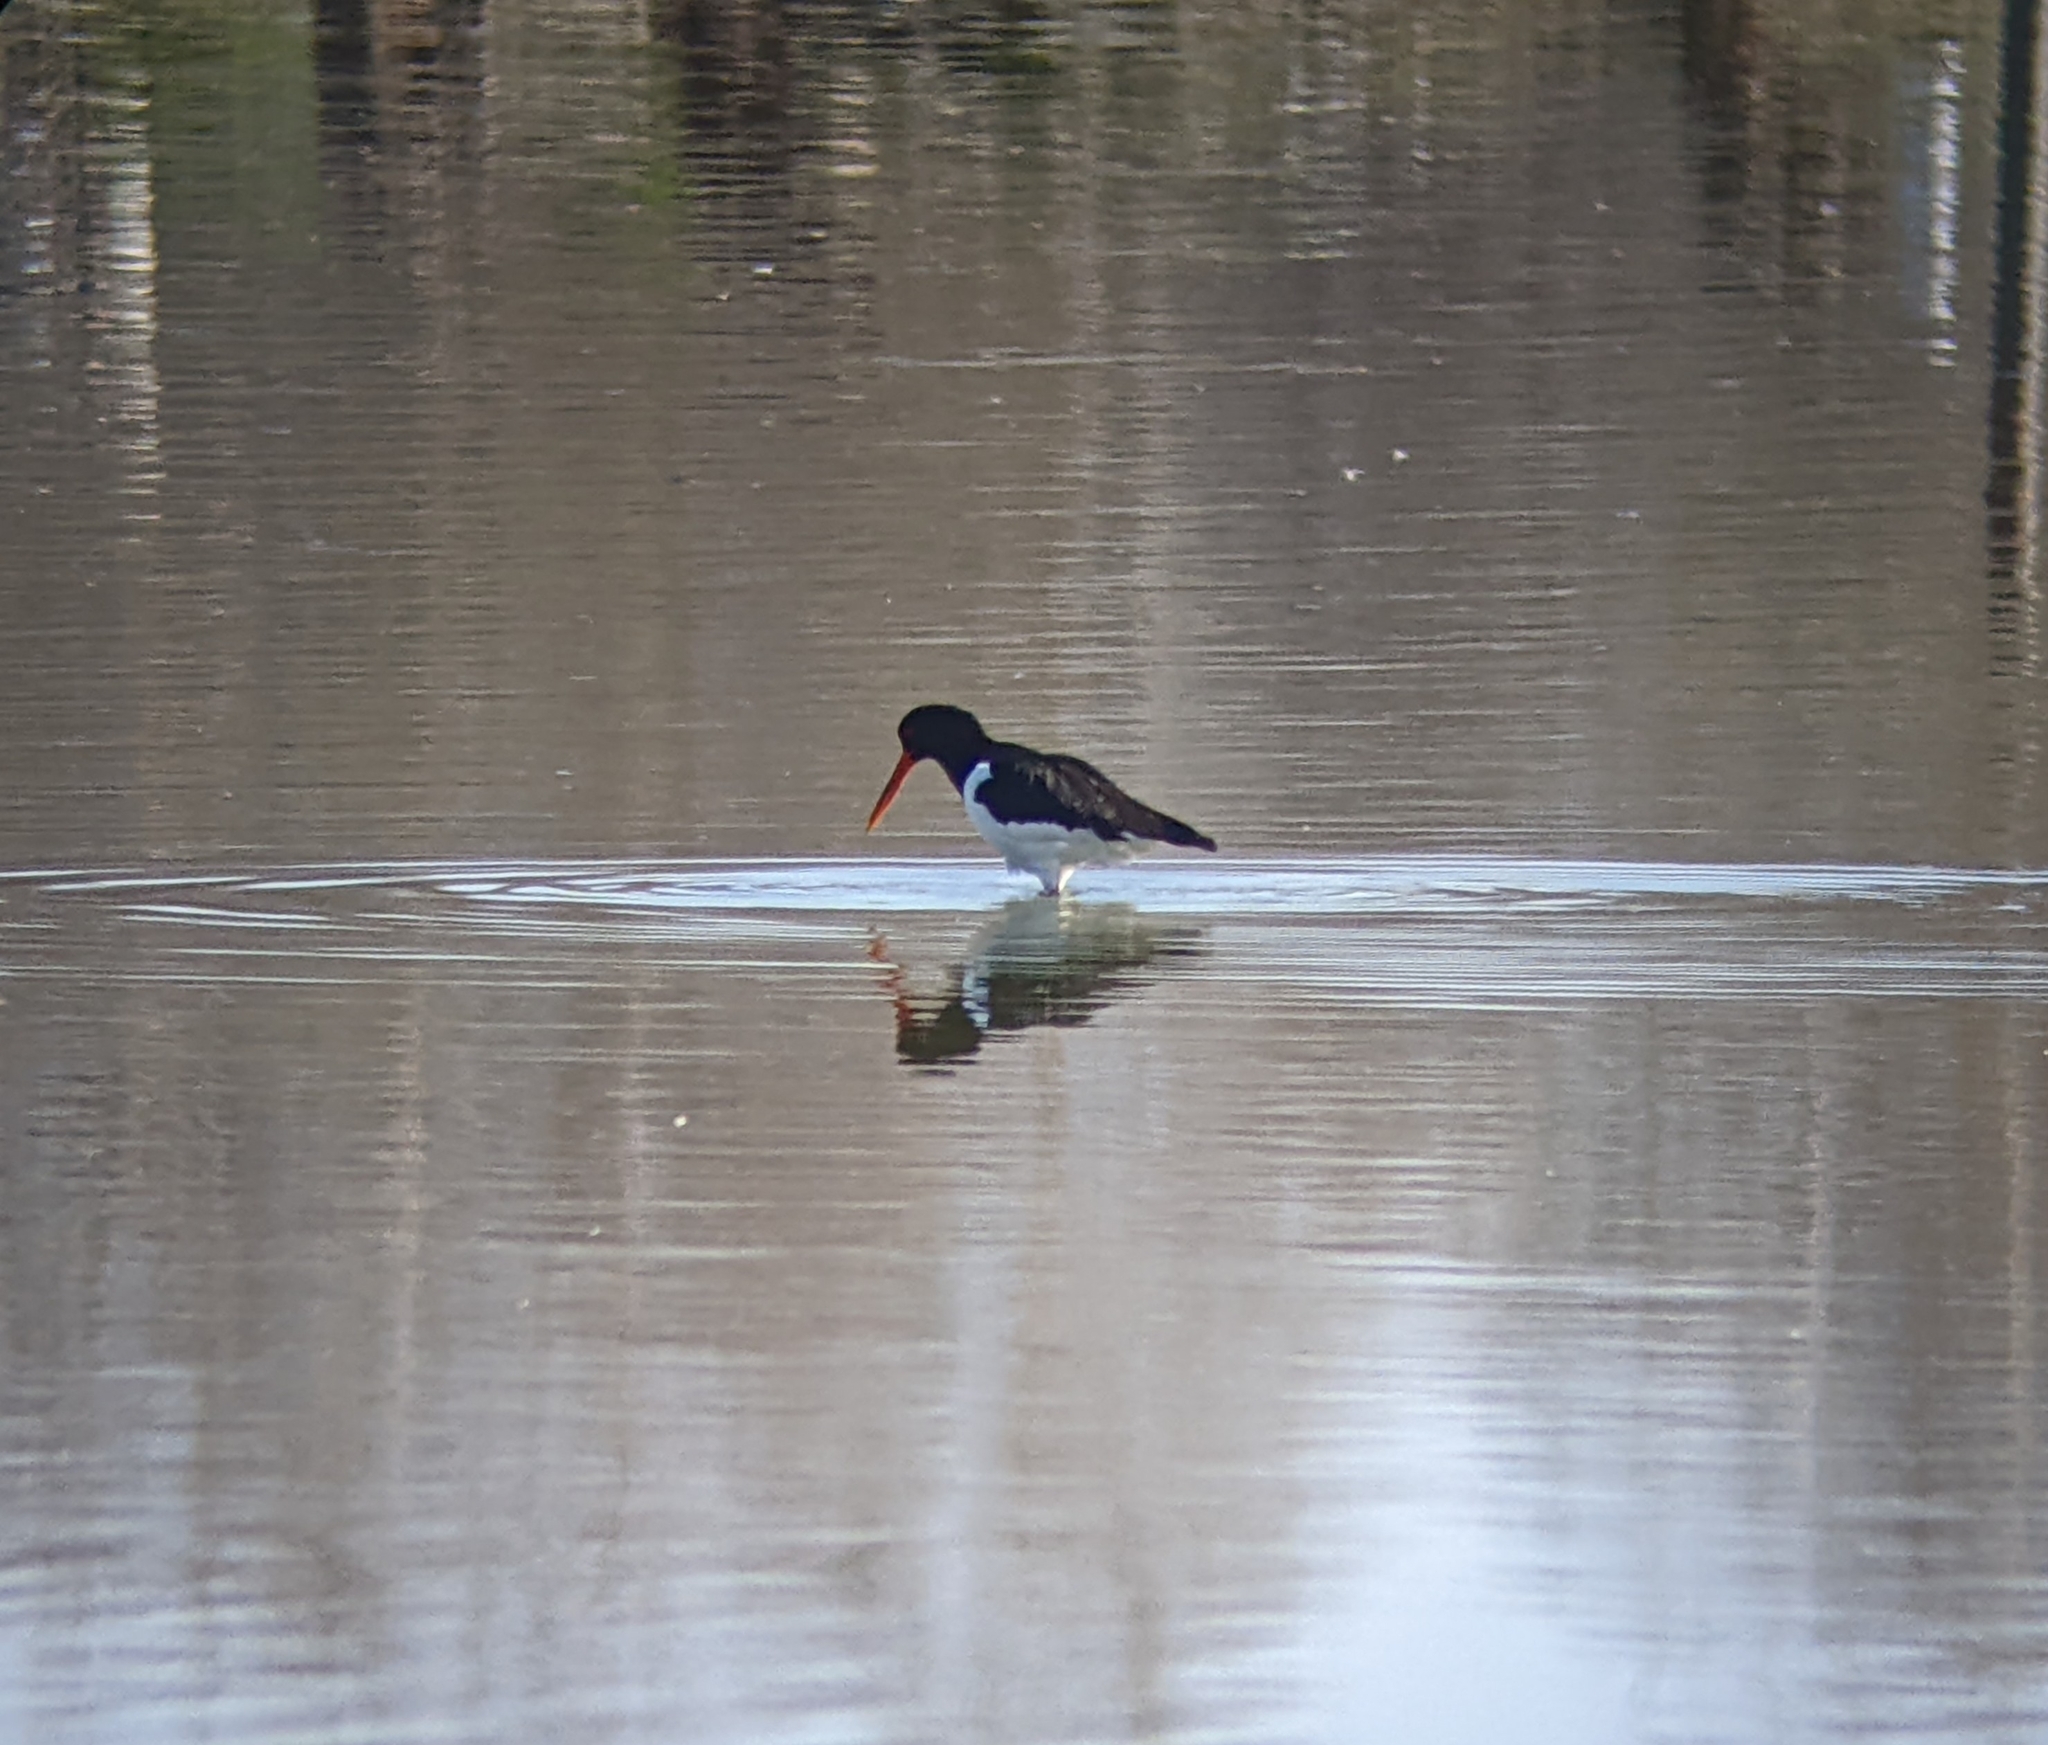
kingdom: Animalia
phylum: Chordata
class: Aves
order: Charadriiformes
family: Haematopodidae
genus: Haematopus
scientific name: Haematopus ostralegus
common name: Eurasian oystercatcher
